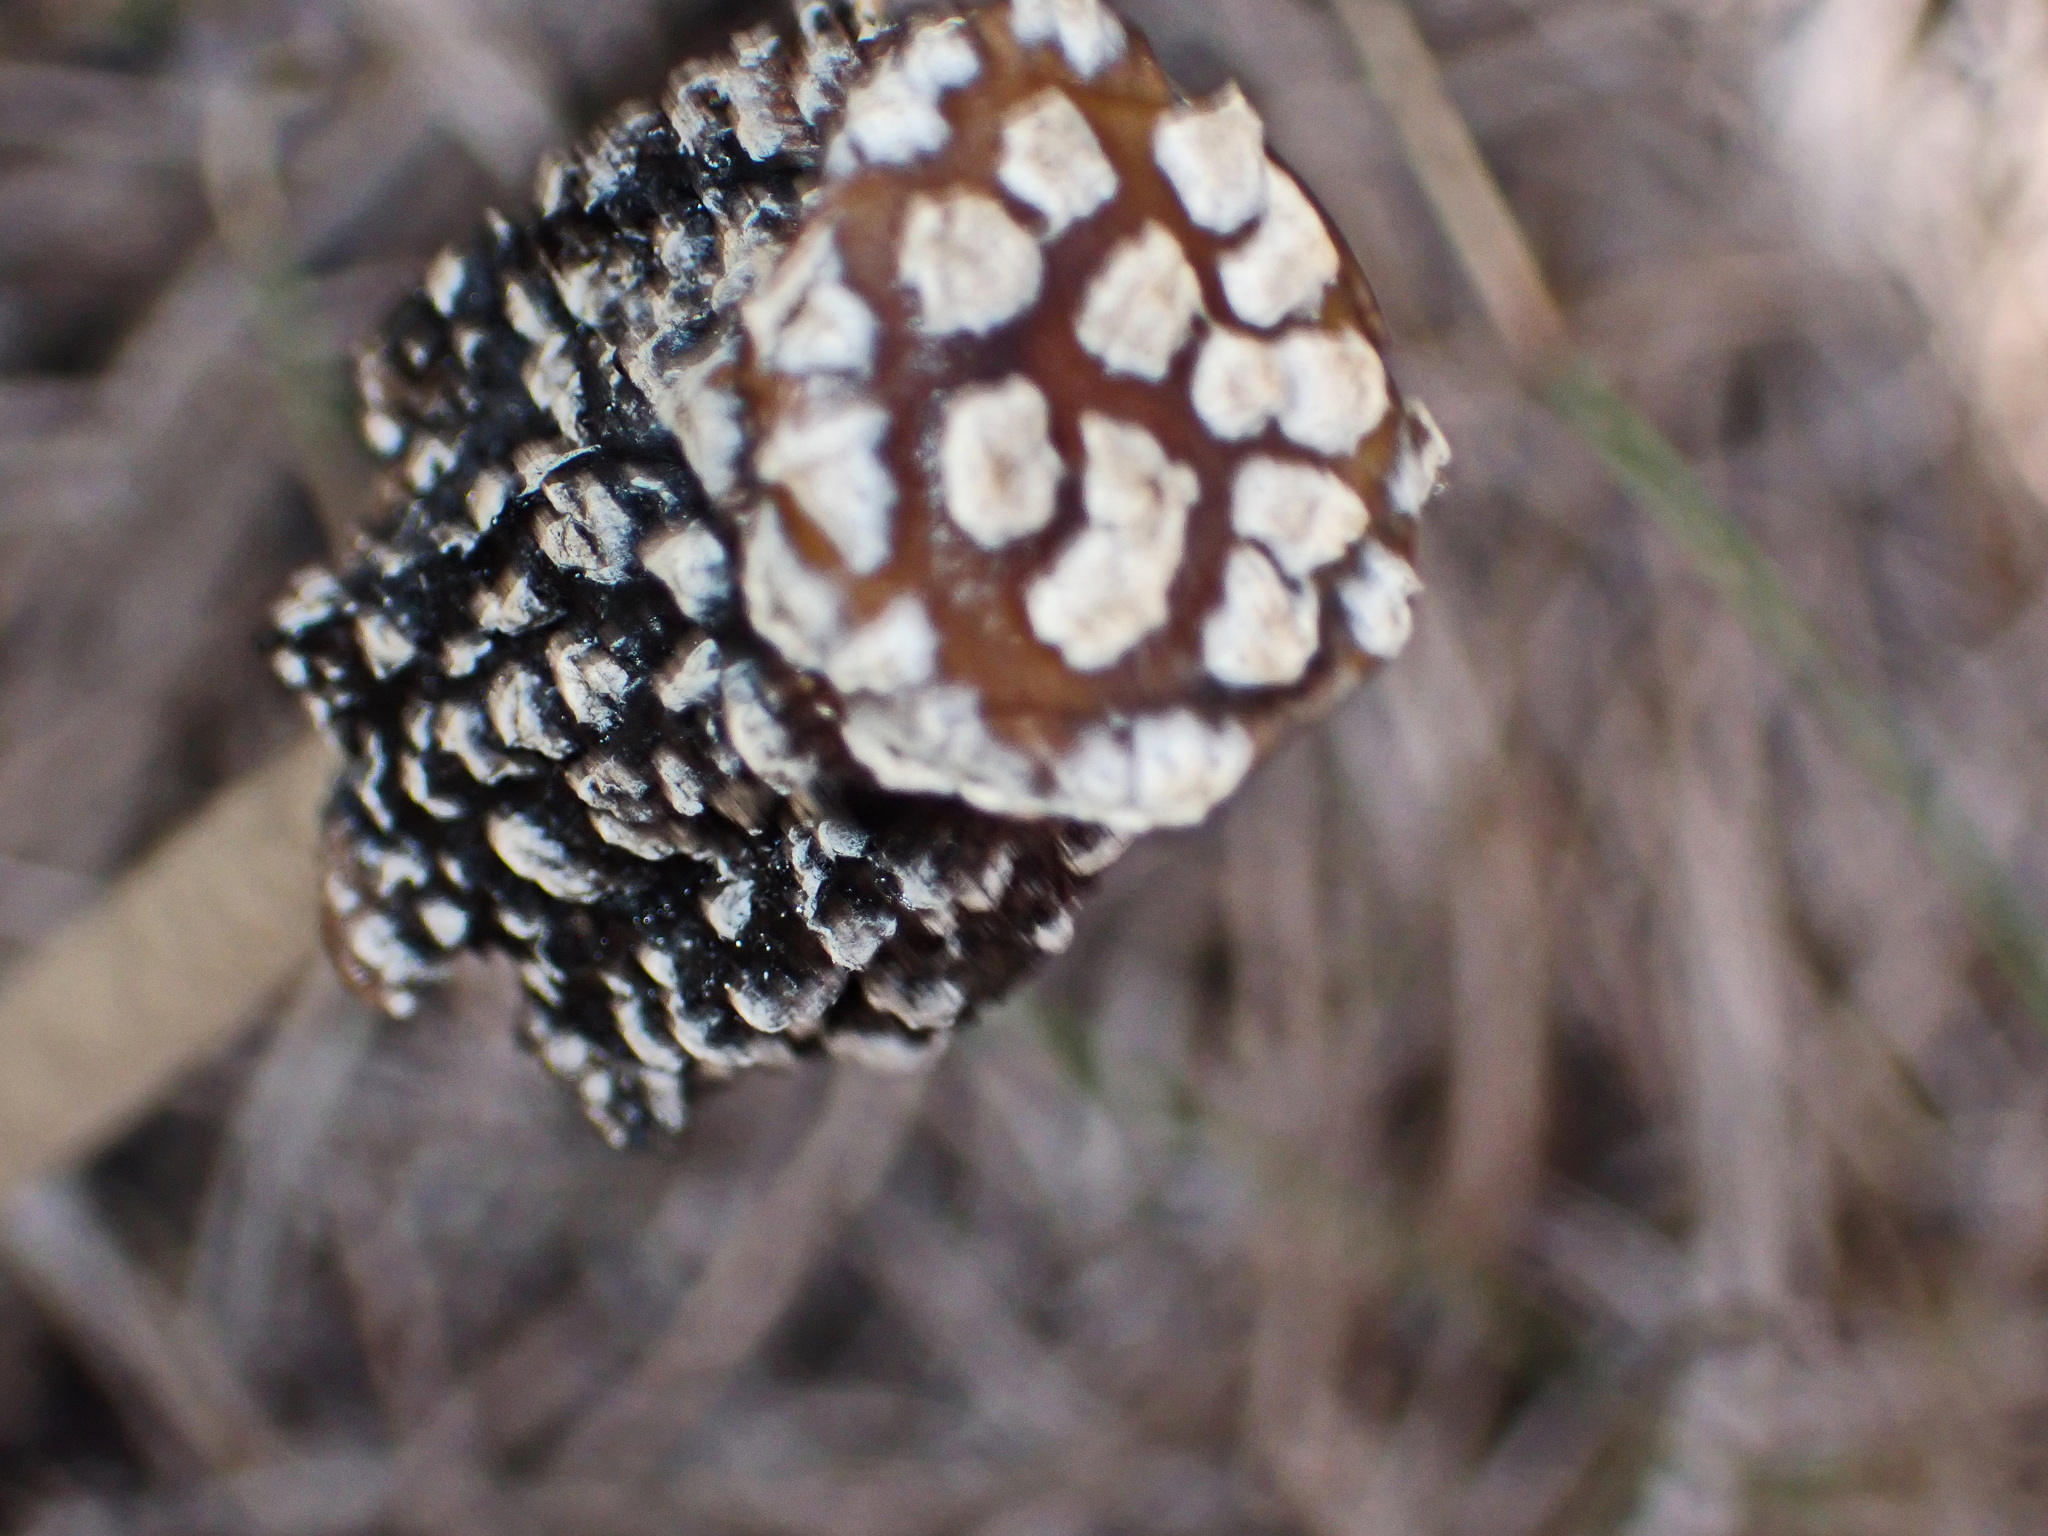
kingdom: Fungi
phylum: Basidiomycota
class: Agaricomycetes
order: Agaricales
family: Psathyrellaceae
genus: Coprinopsis
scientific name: Coprinopsis picacea
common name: Magpie inkcap
